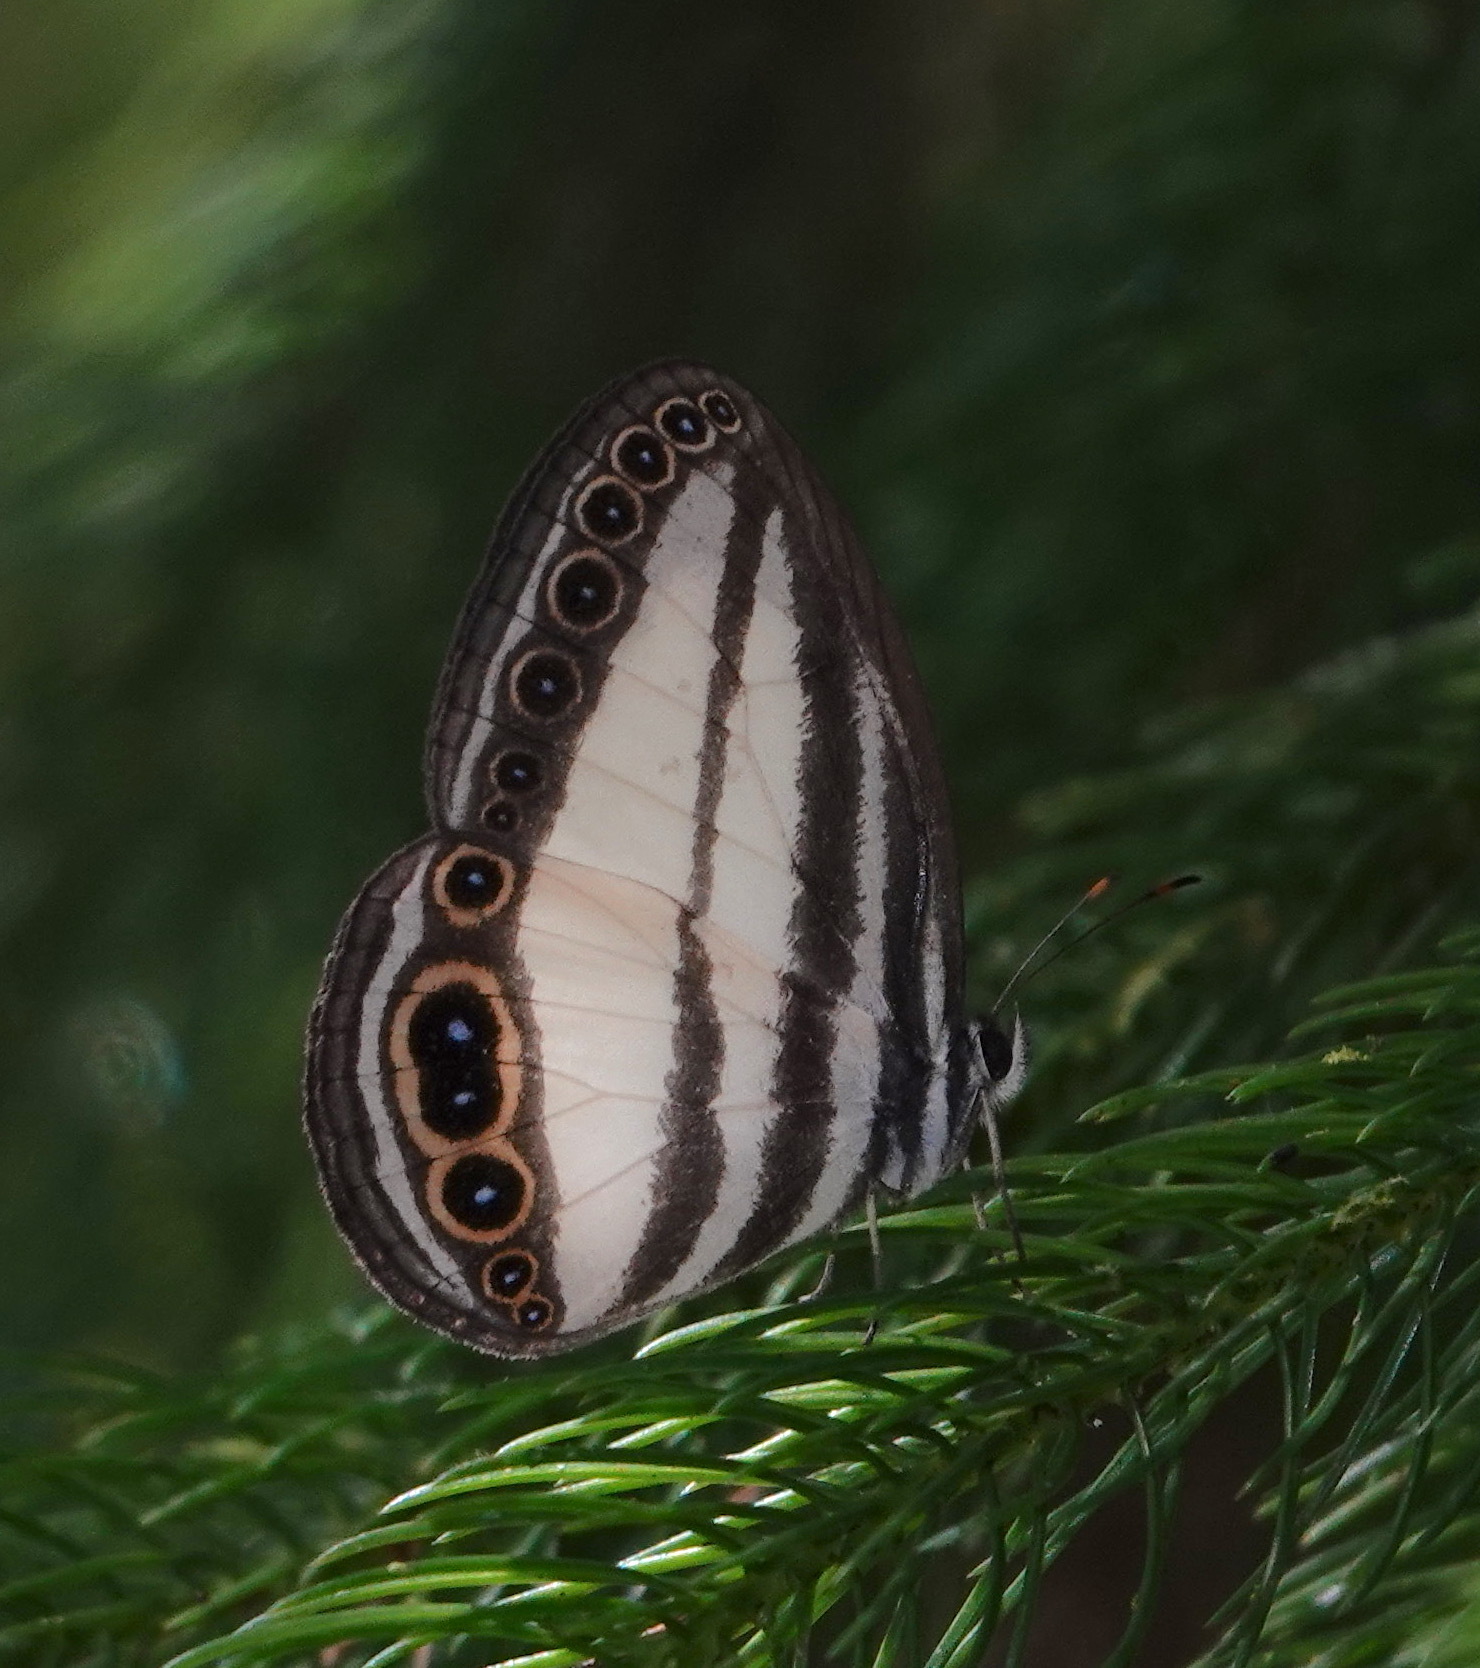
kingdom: Animalia
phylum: Arthropoda
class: Insecta
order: Lepidoptera
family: Nymphalidae
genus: Ragadia
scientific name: Ragadia annulata
